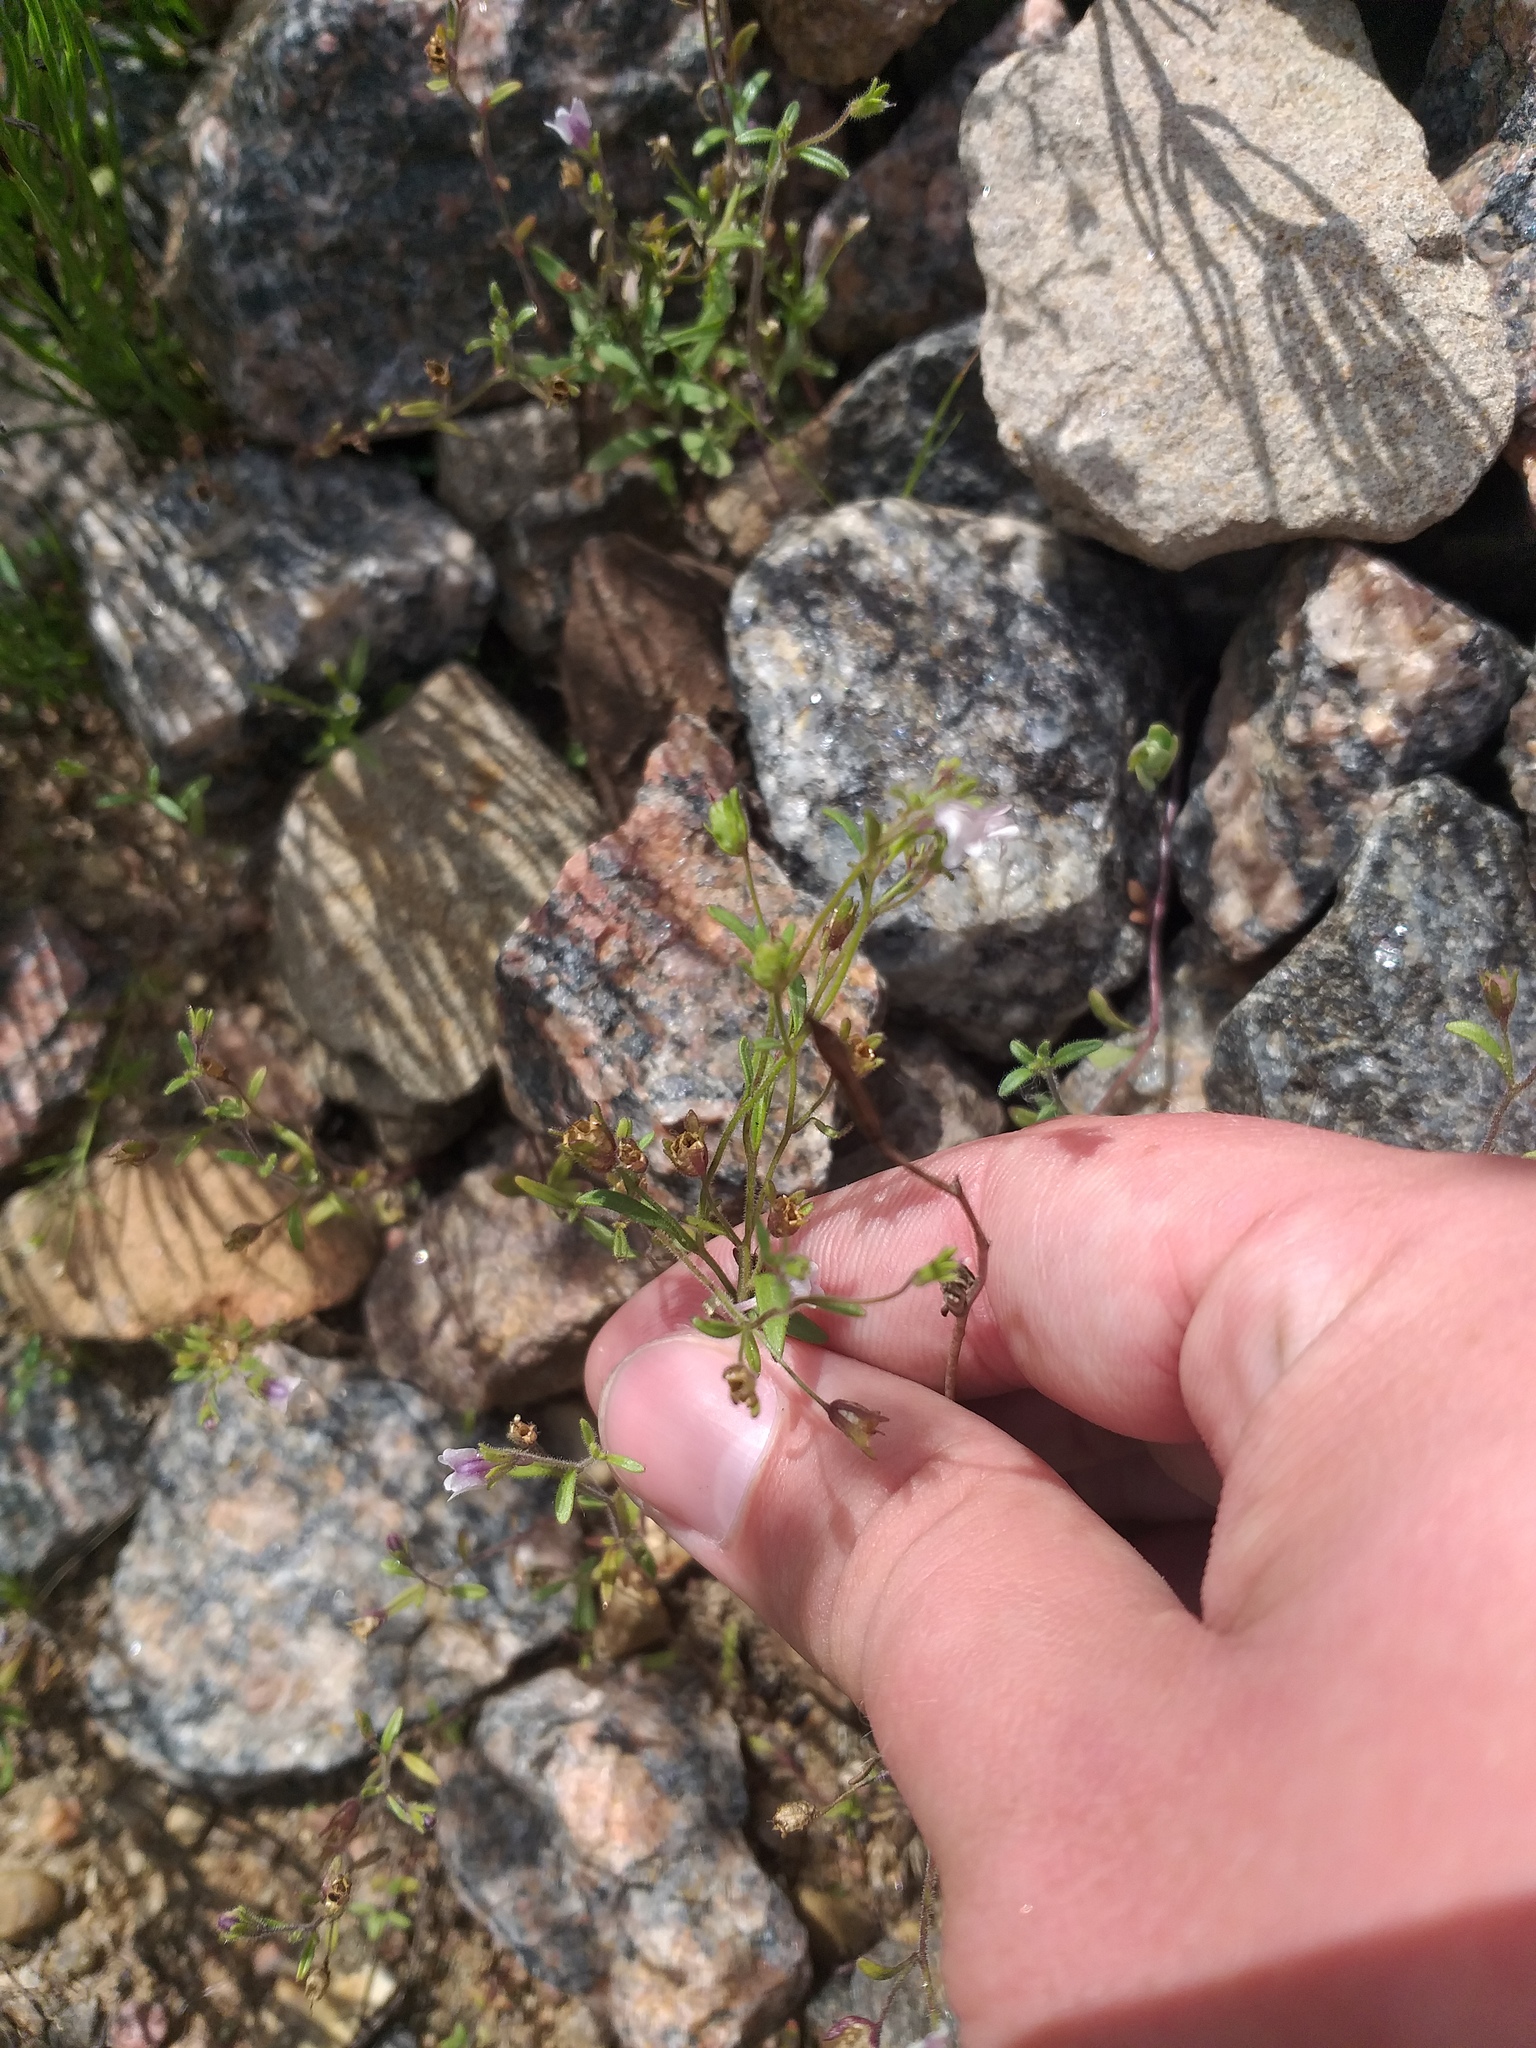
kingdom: Plantae
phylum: Tracheophyta
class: Magnoliopsida
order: Lamiales
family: Plantaginaceae
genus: Chaenorhinum
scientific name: Chaenorhinum minus
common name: Dwarf snapdragon
